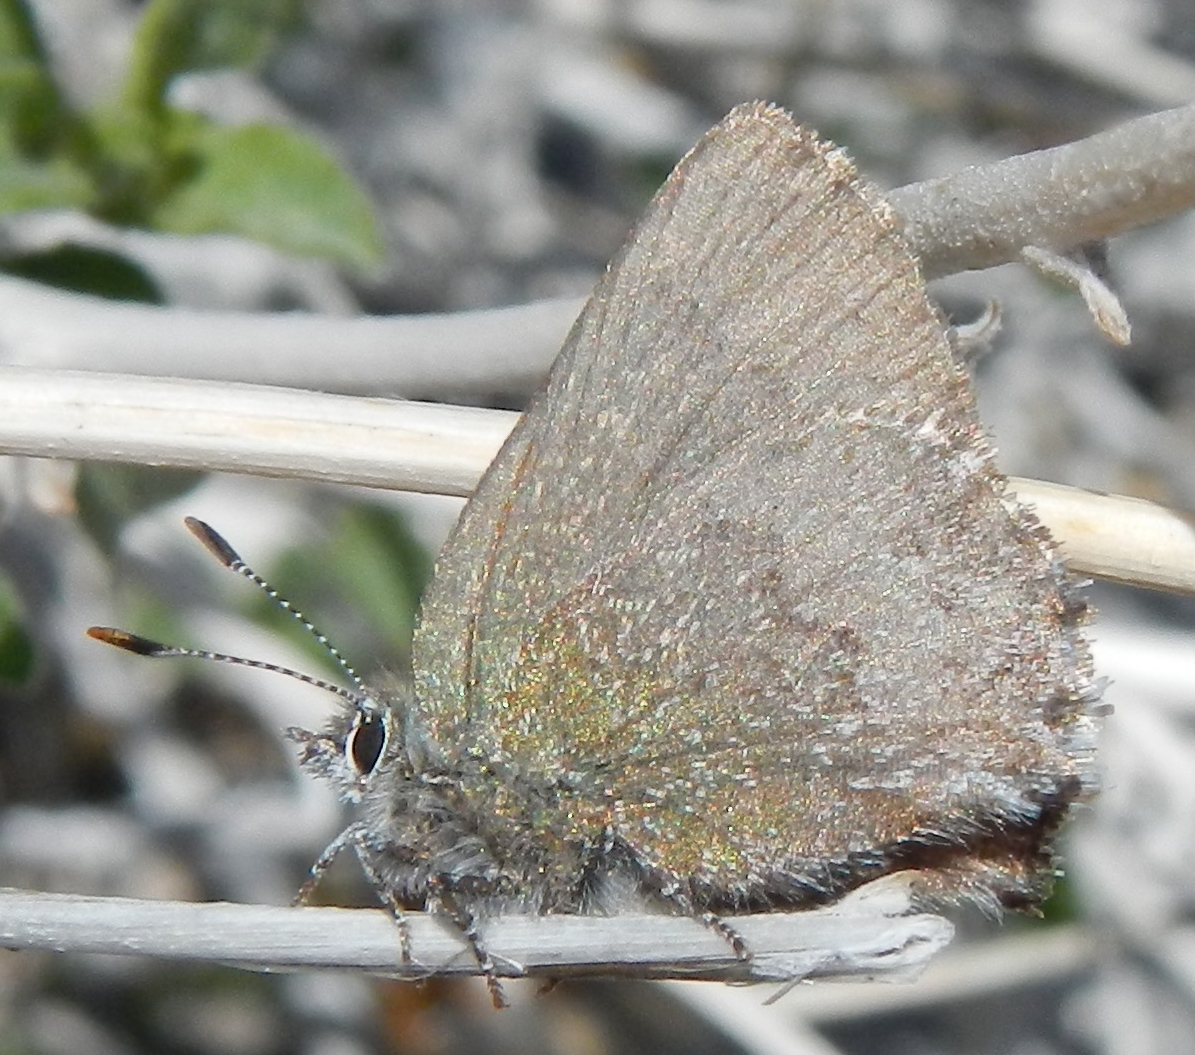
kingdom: Animalia
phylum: Arthropoda
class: Insecta
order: Lepidoptera
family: Lycaenidae
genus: Callophrys
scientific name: Callophrys fotis
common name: Desert elfin
